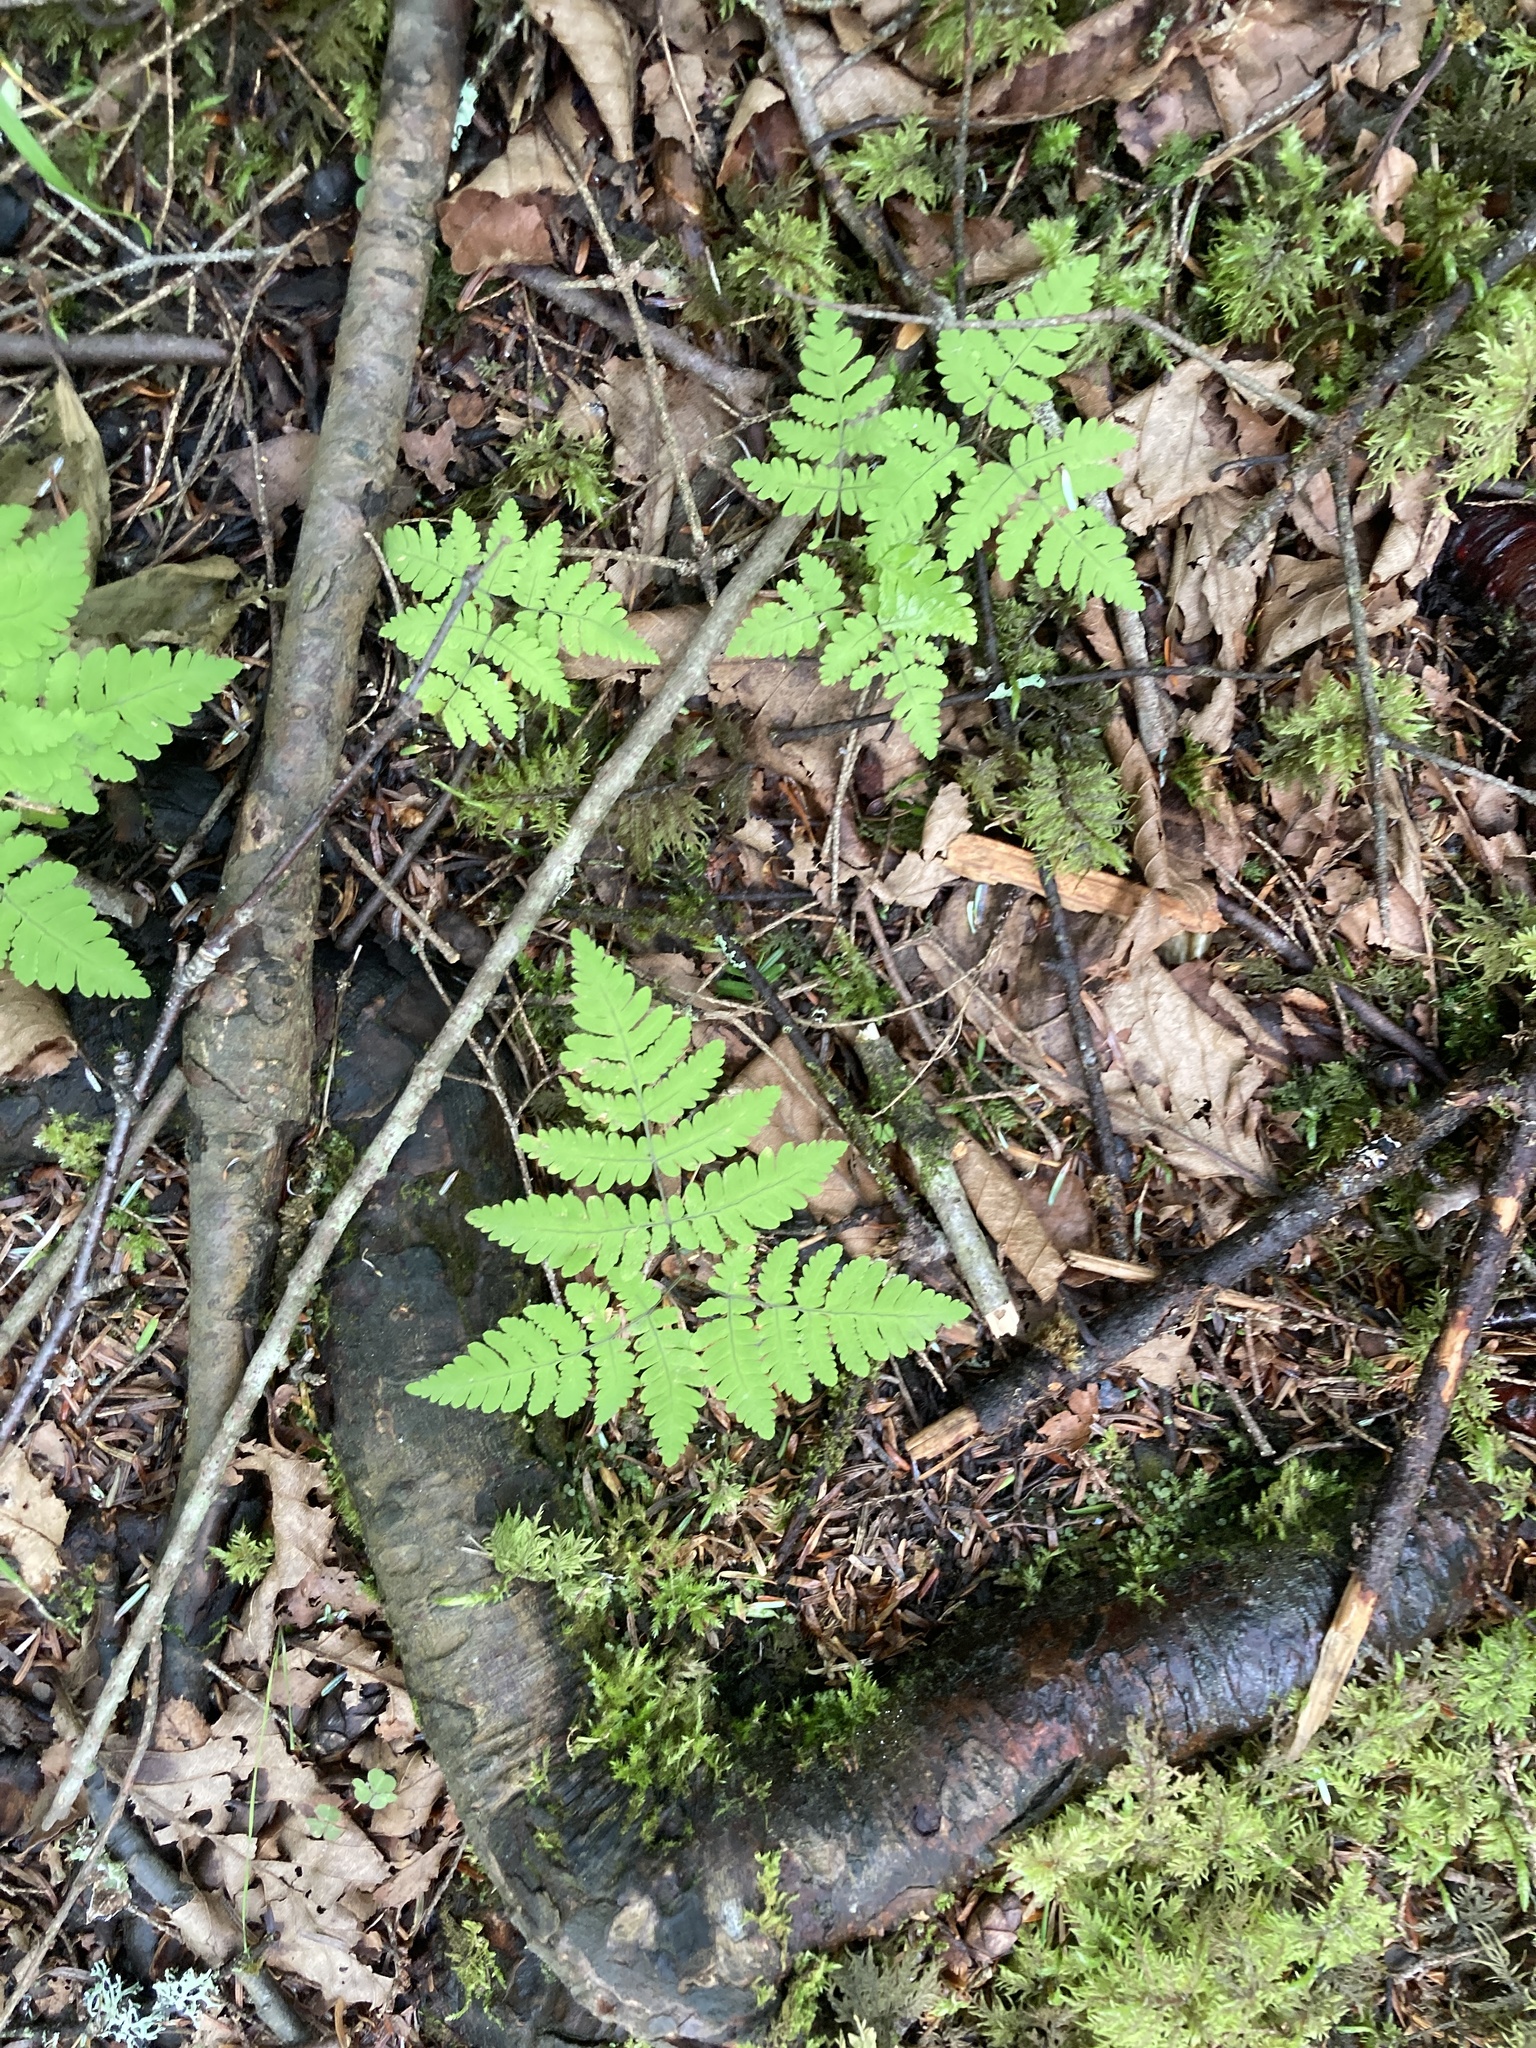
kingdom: Plantae
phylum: Tracheophyta
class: Polypodiopsida
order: Polypodiales
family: Cystopteridaceae
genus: Gymnocarpium
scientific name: Gymnocarpium dryopteris
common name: Oak fern
